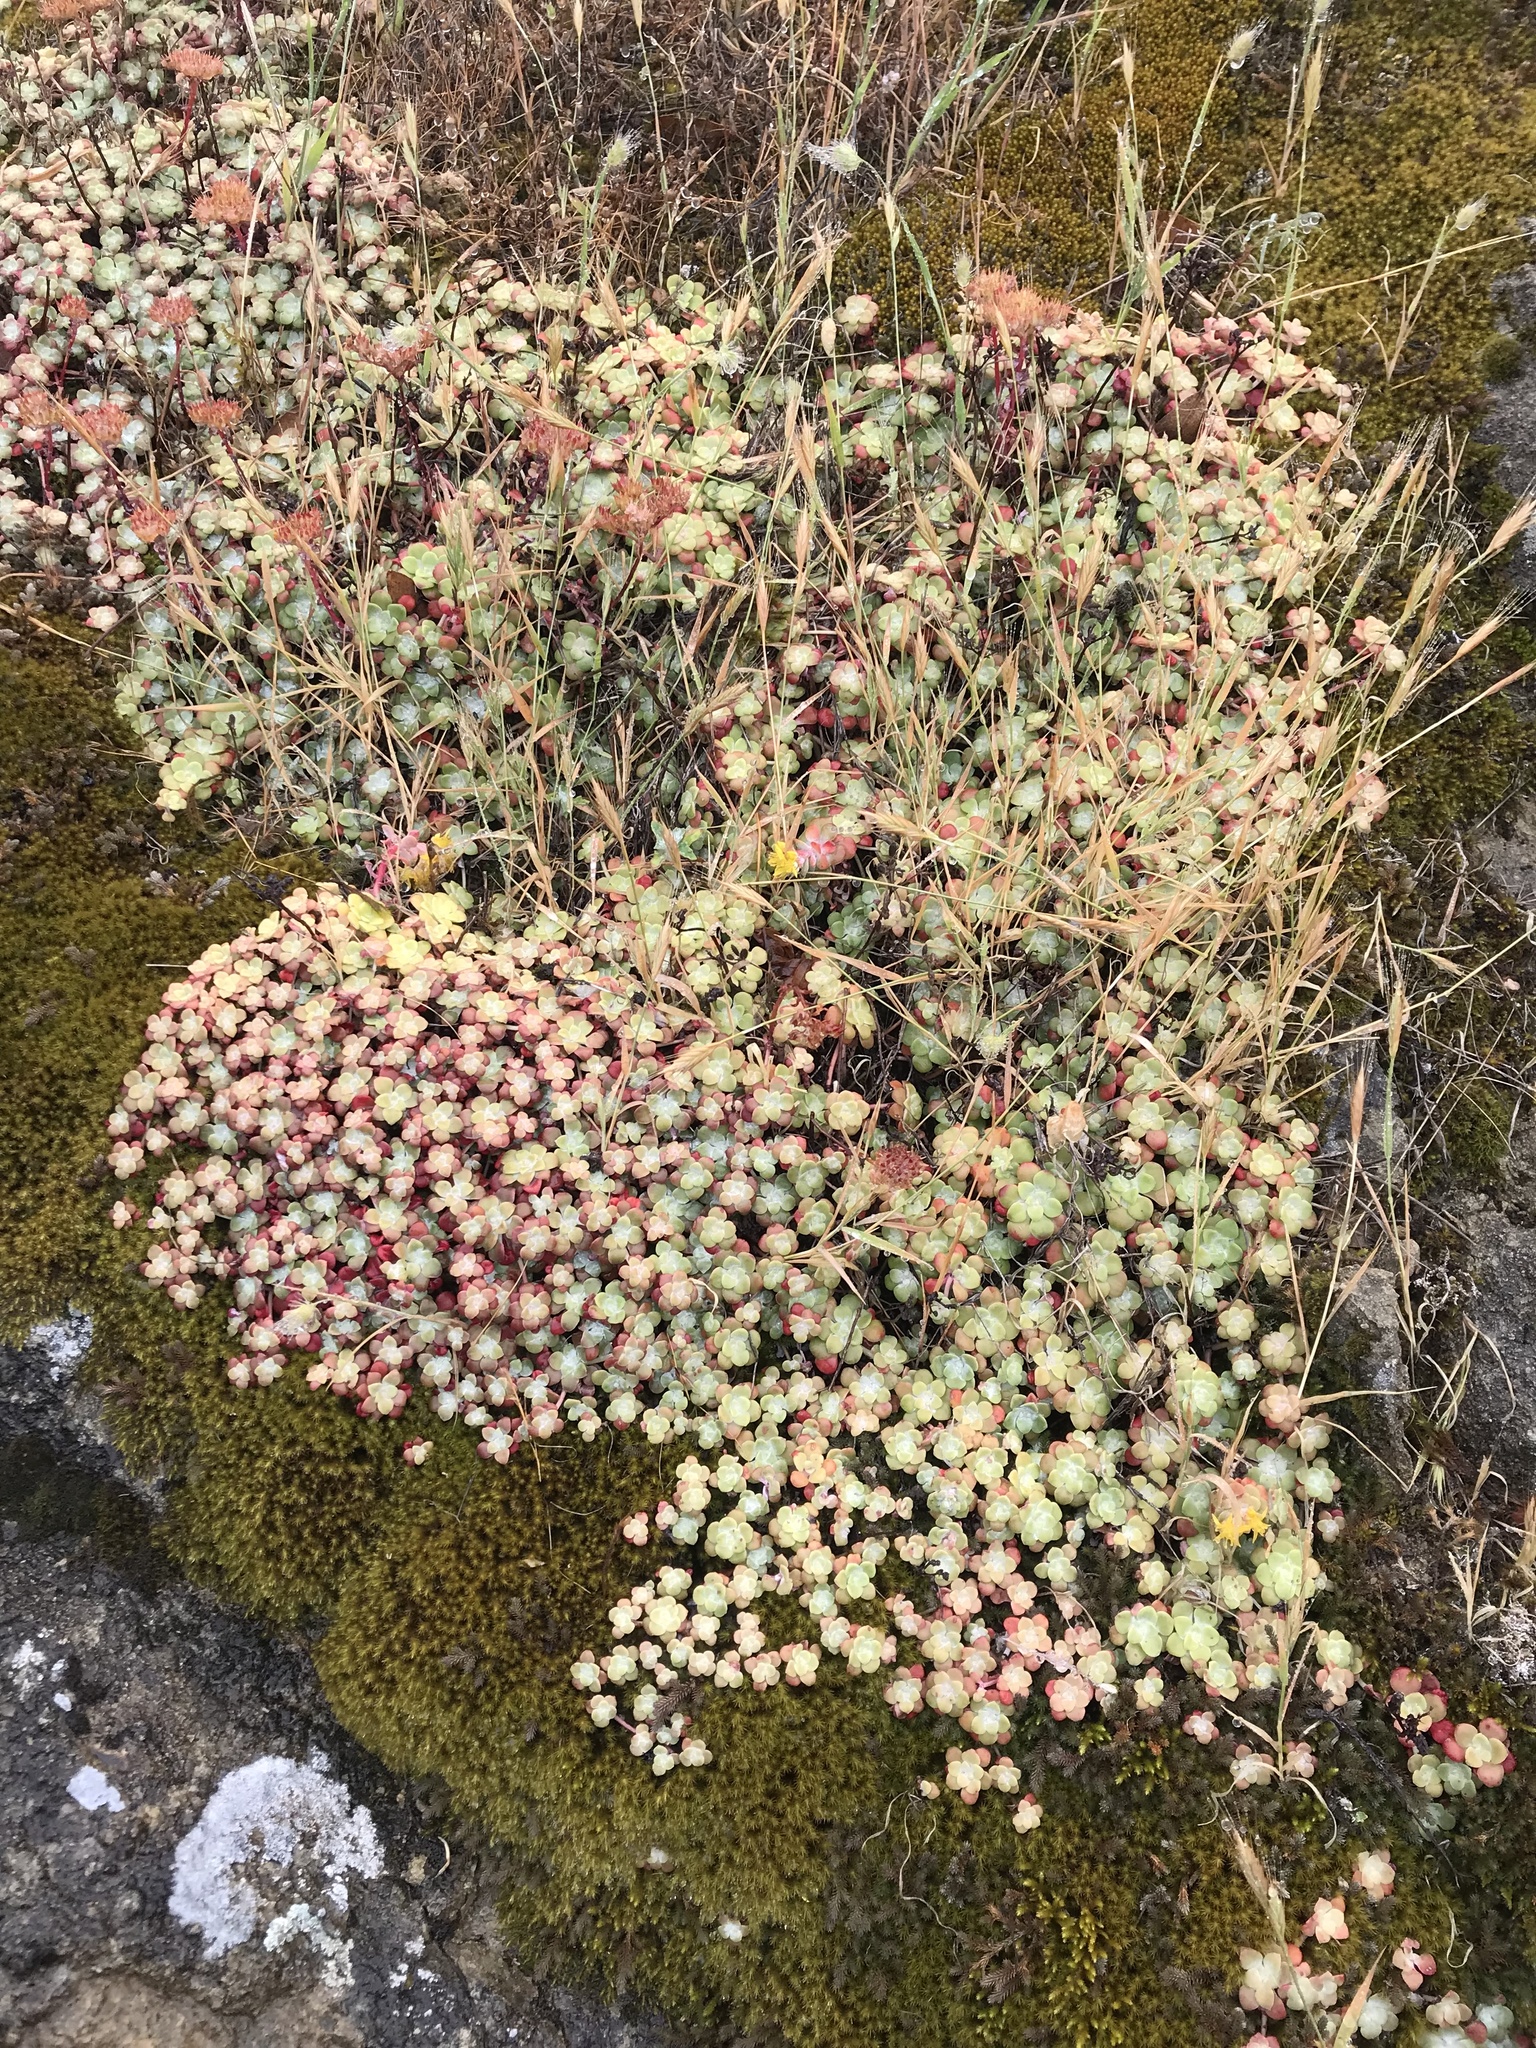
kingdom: Plantae
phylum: Tracheophyta
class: Magnoliopsida
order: Saxifragales
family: Crassulaceae
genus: Sedum
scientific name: Sedum spathulifolium
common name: Colorado stonecrop
